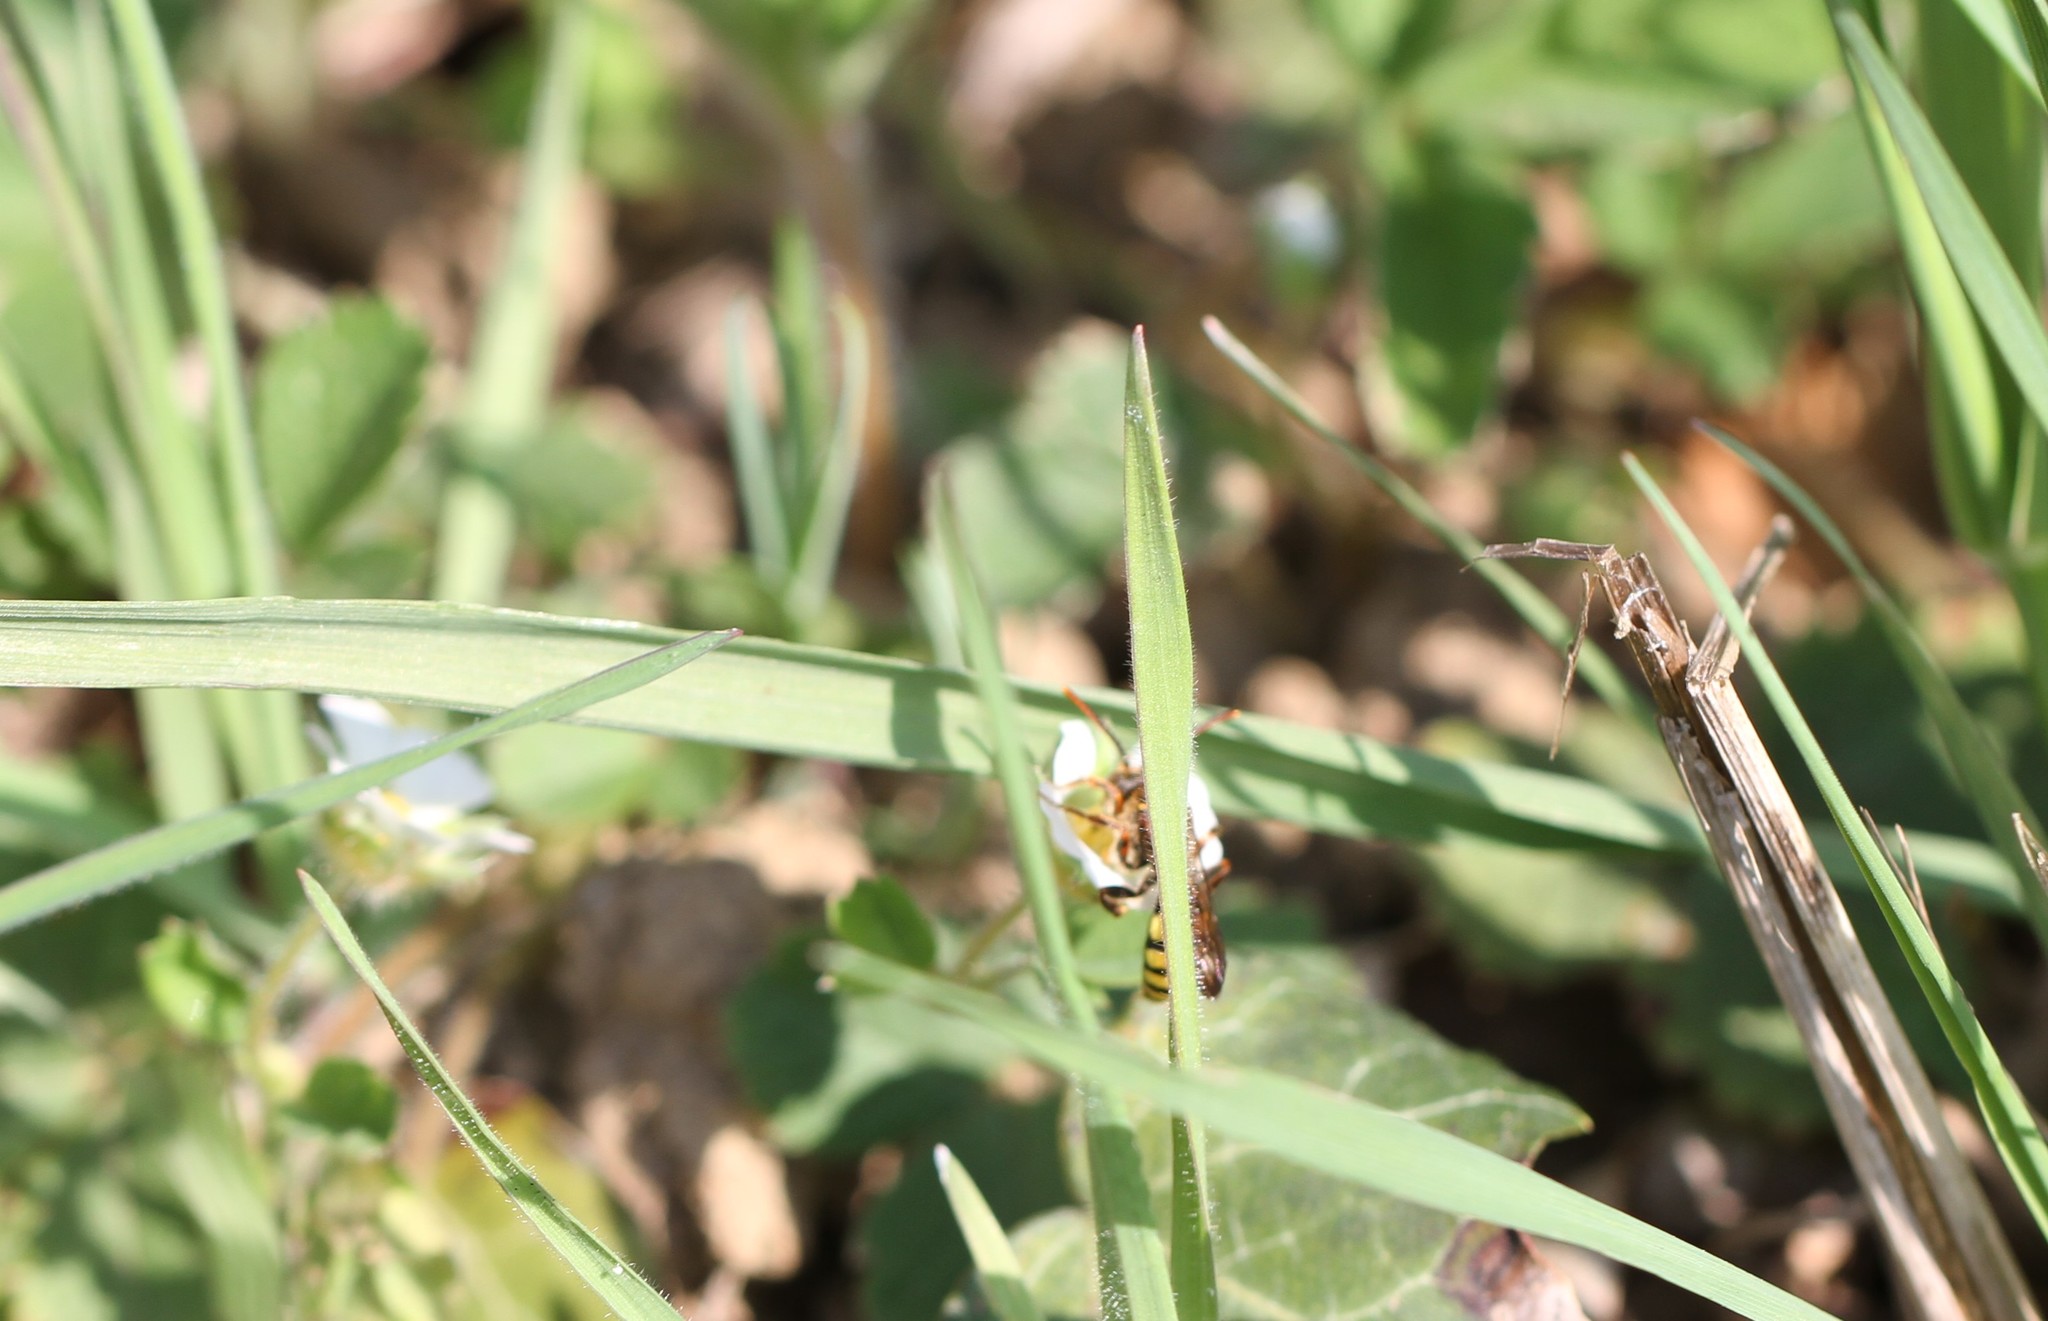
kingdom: Animalia
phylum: Arthropoda
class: Insecta
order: Hymenoptera
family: Apidae
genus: Nomada
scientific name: Nomada
